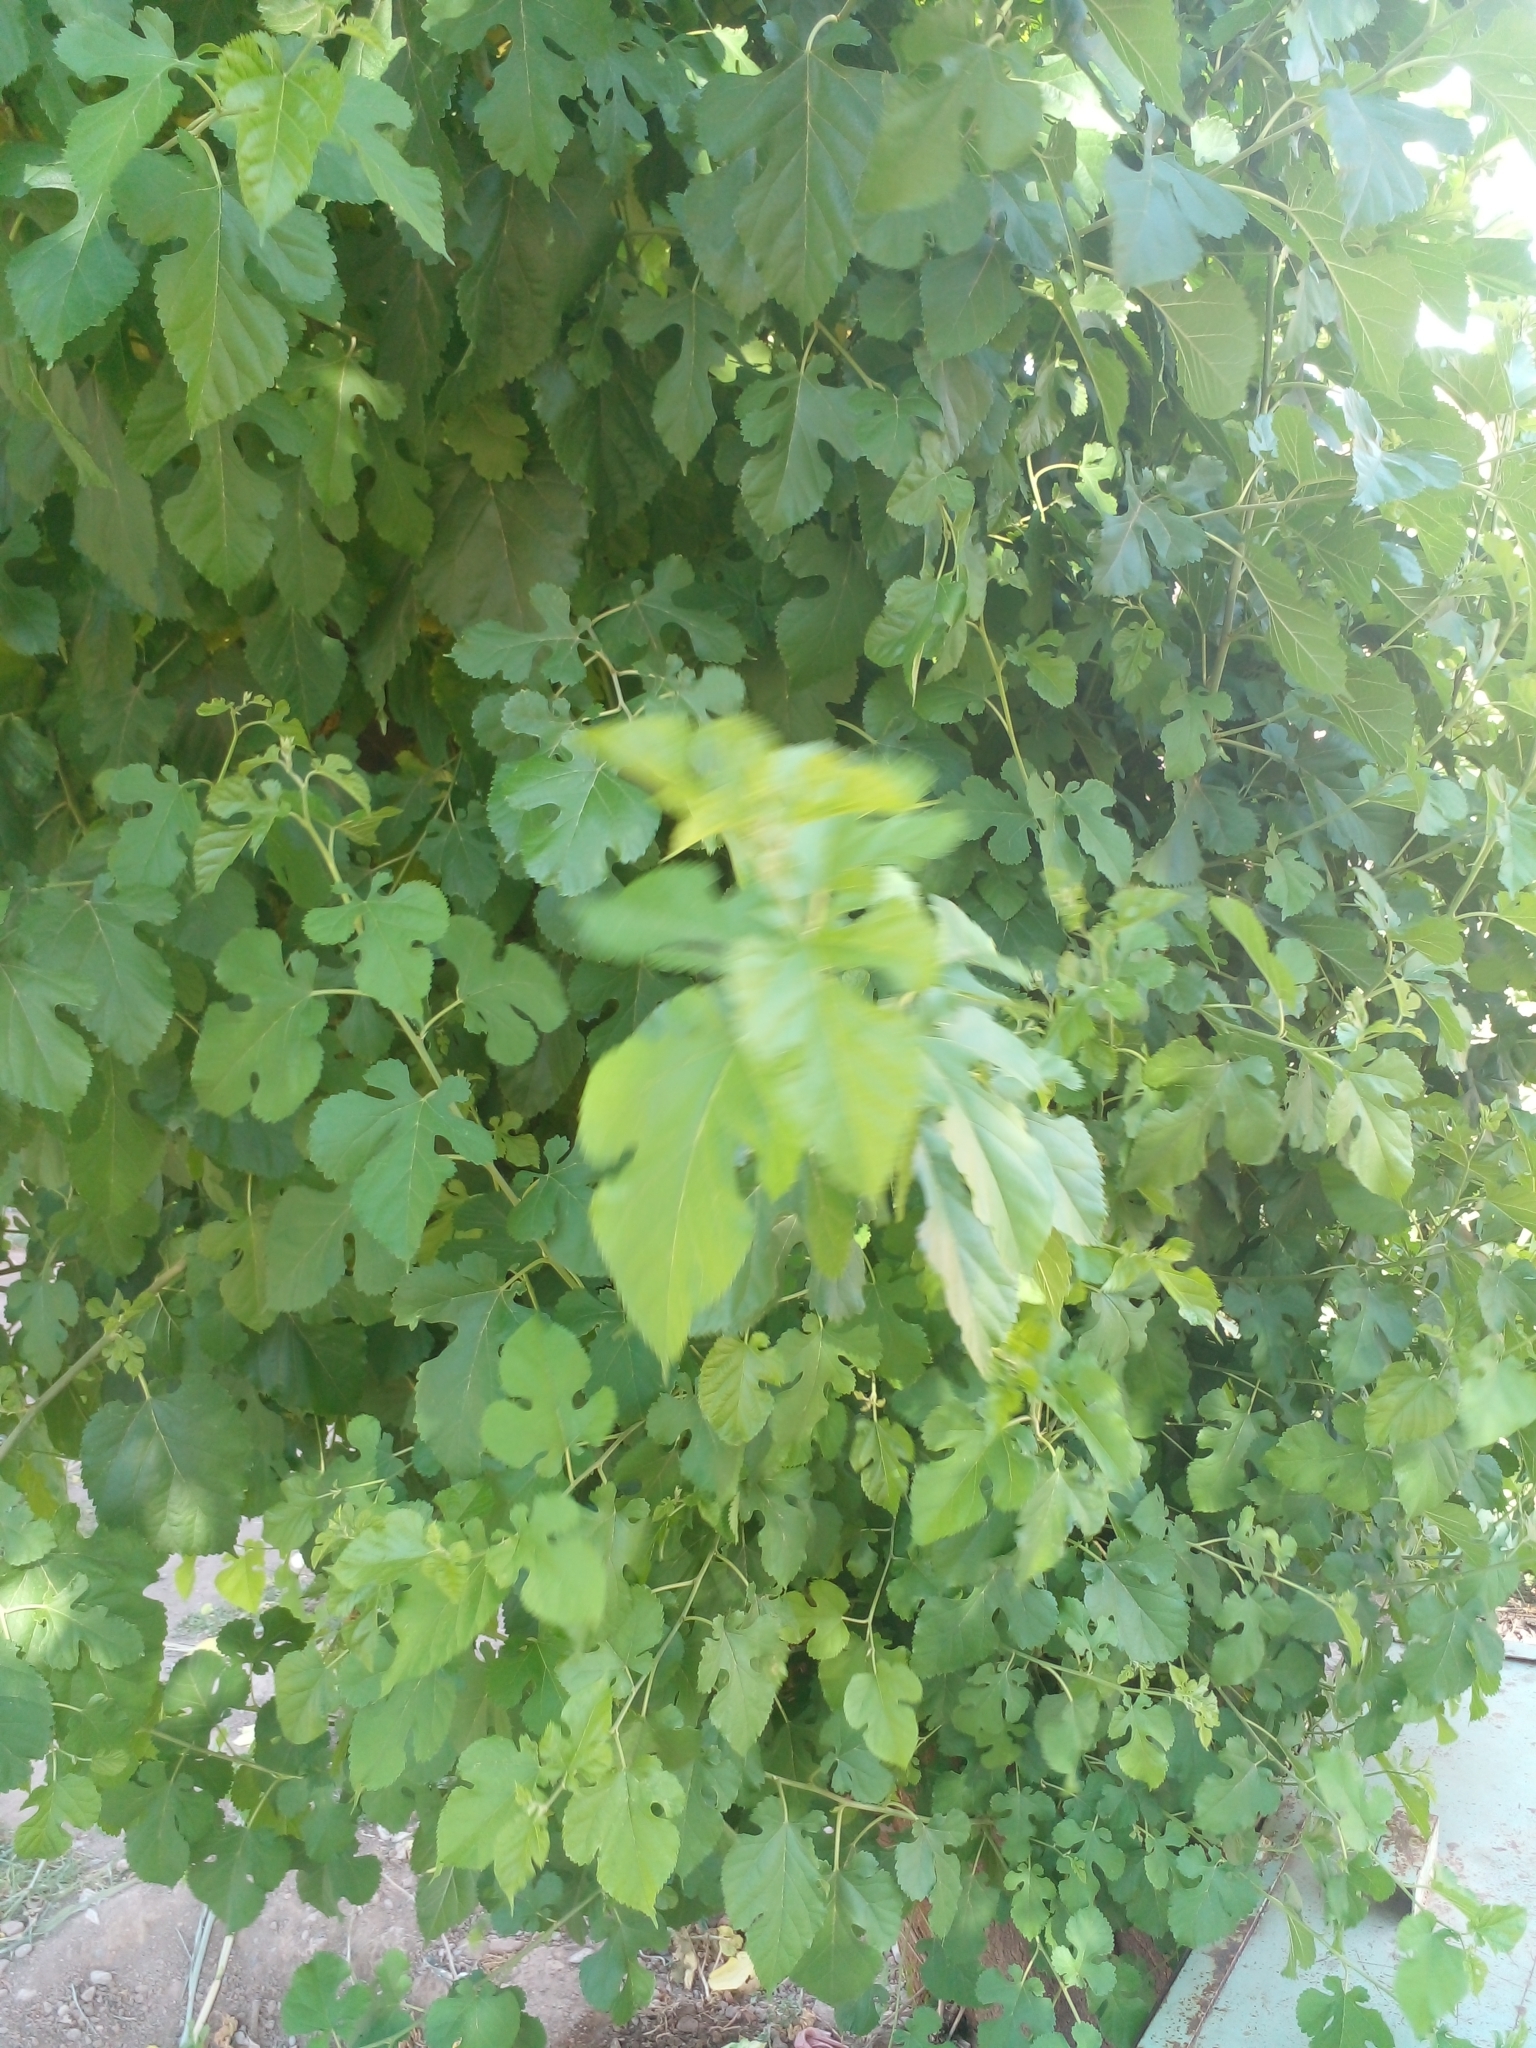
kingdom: Plantae
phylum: Tracheophyta
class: Magnoliopsida
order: Rosales
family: Moraceae
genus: Morus
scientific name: Morus alba
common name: White mulberry
